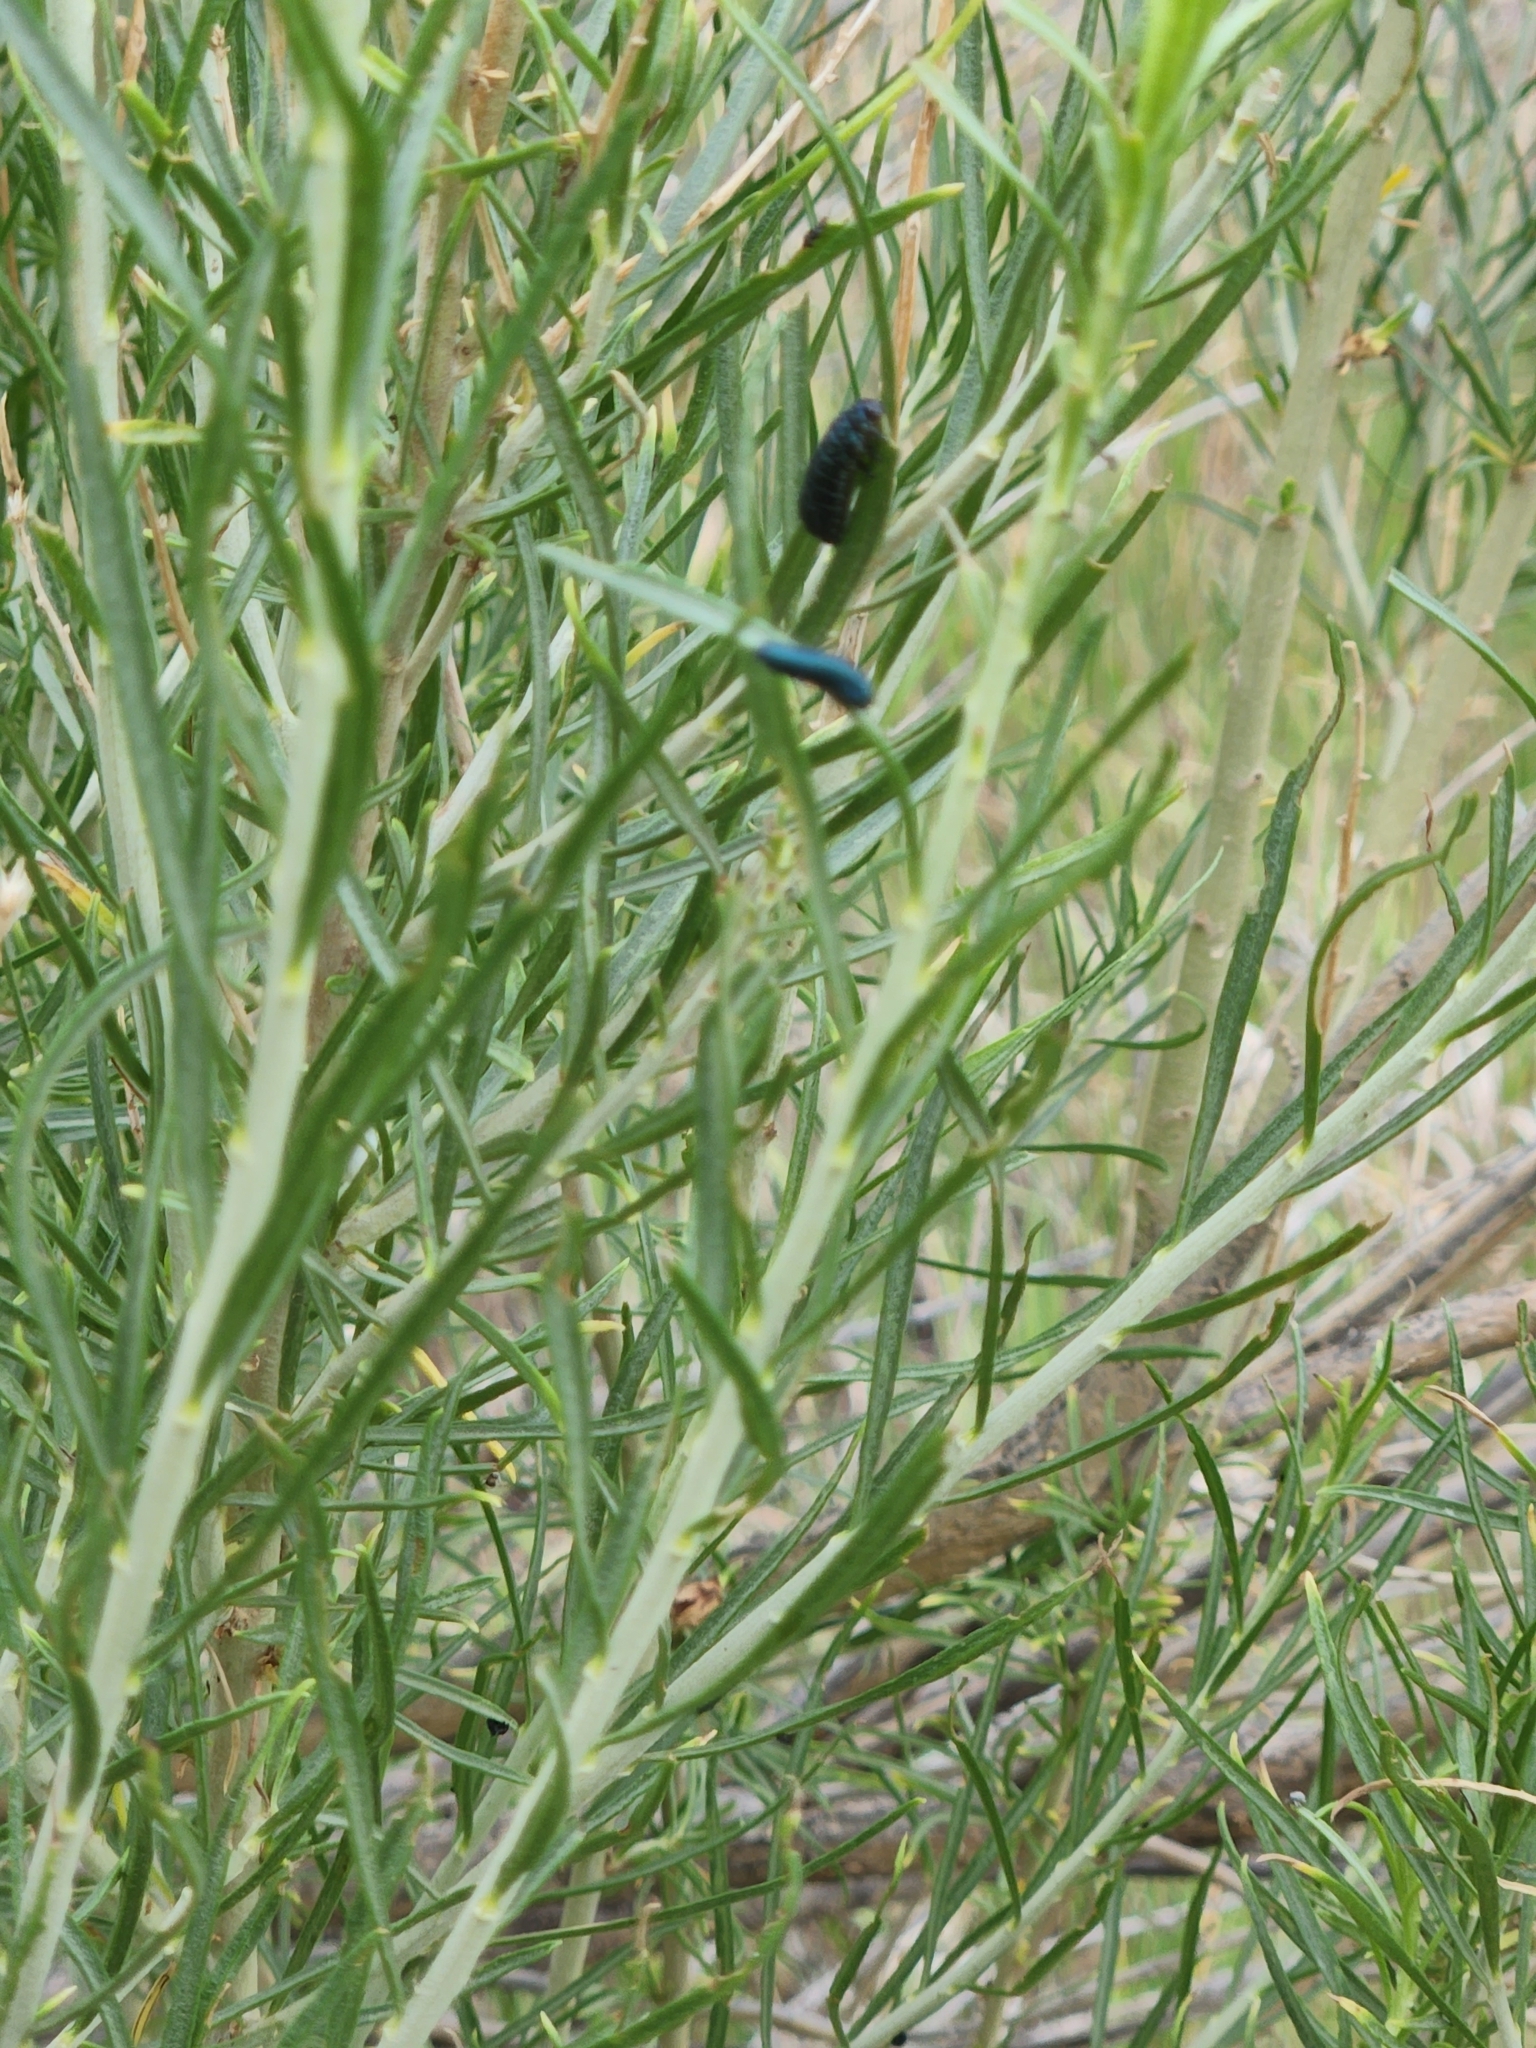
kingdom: Animalia
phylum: Arthropoda
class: Insecta
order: Coleoptera
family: Chrysomelidae
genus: Trirhabda
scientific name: Trirhabda nitidicollis
